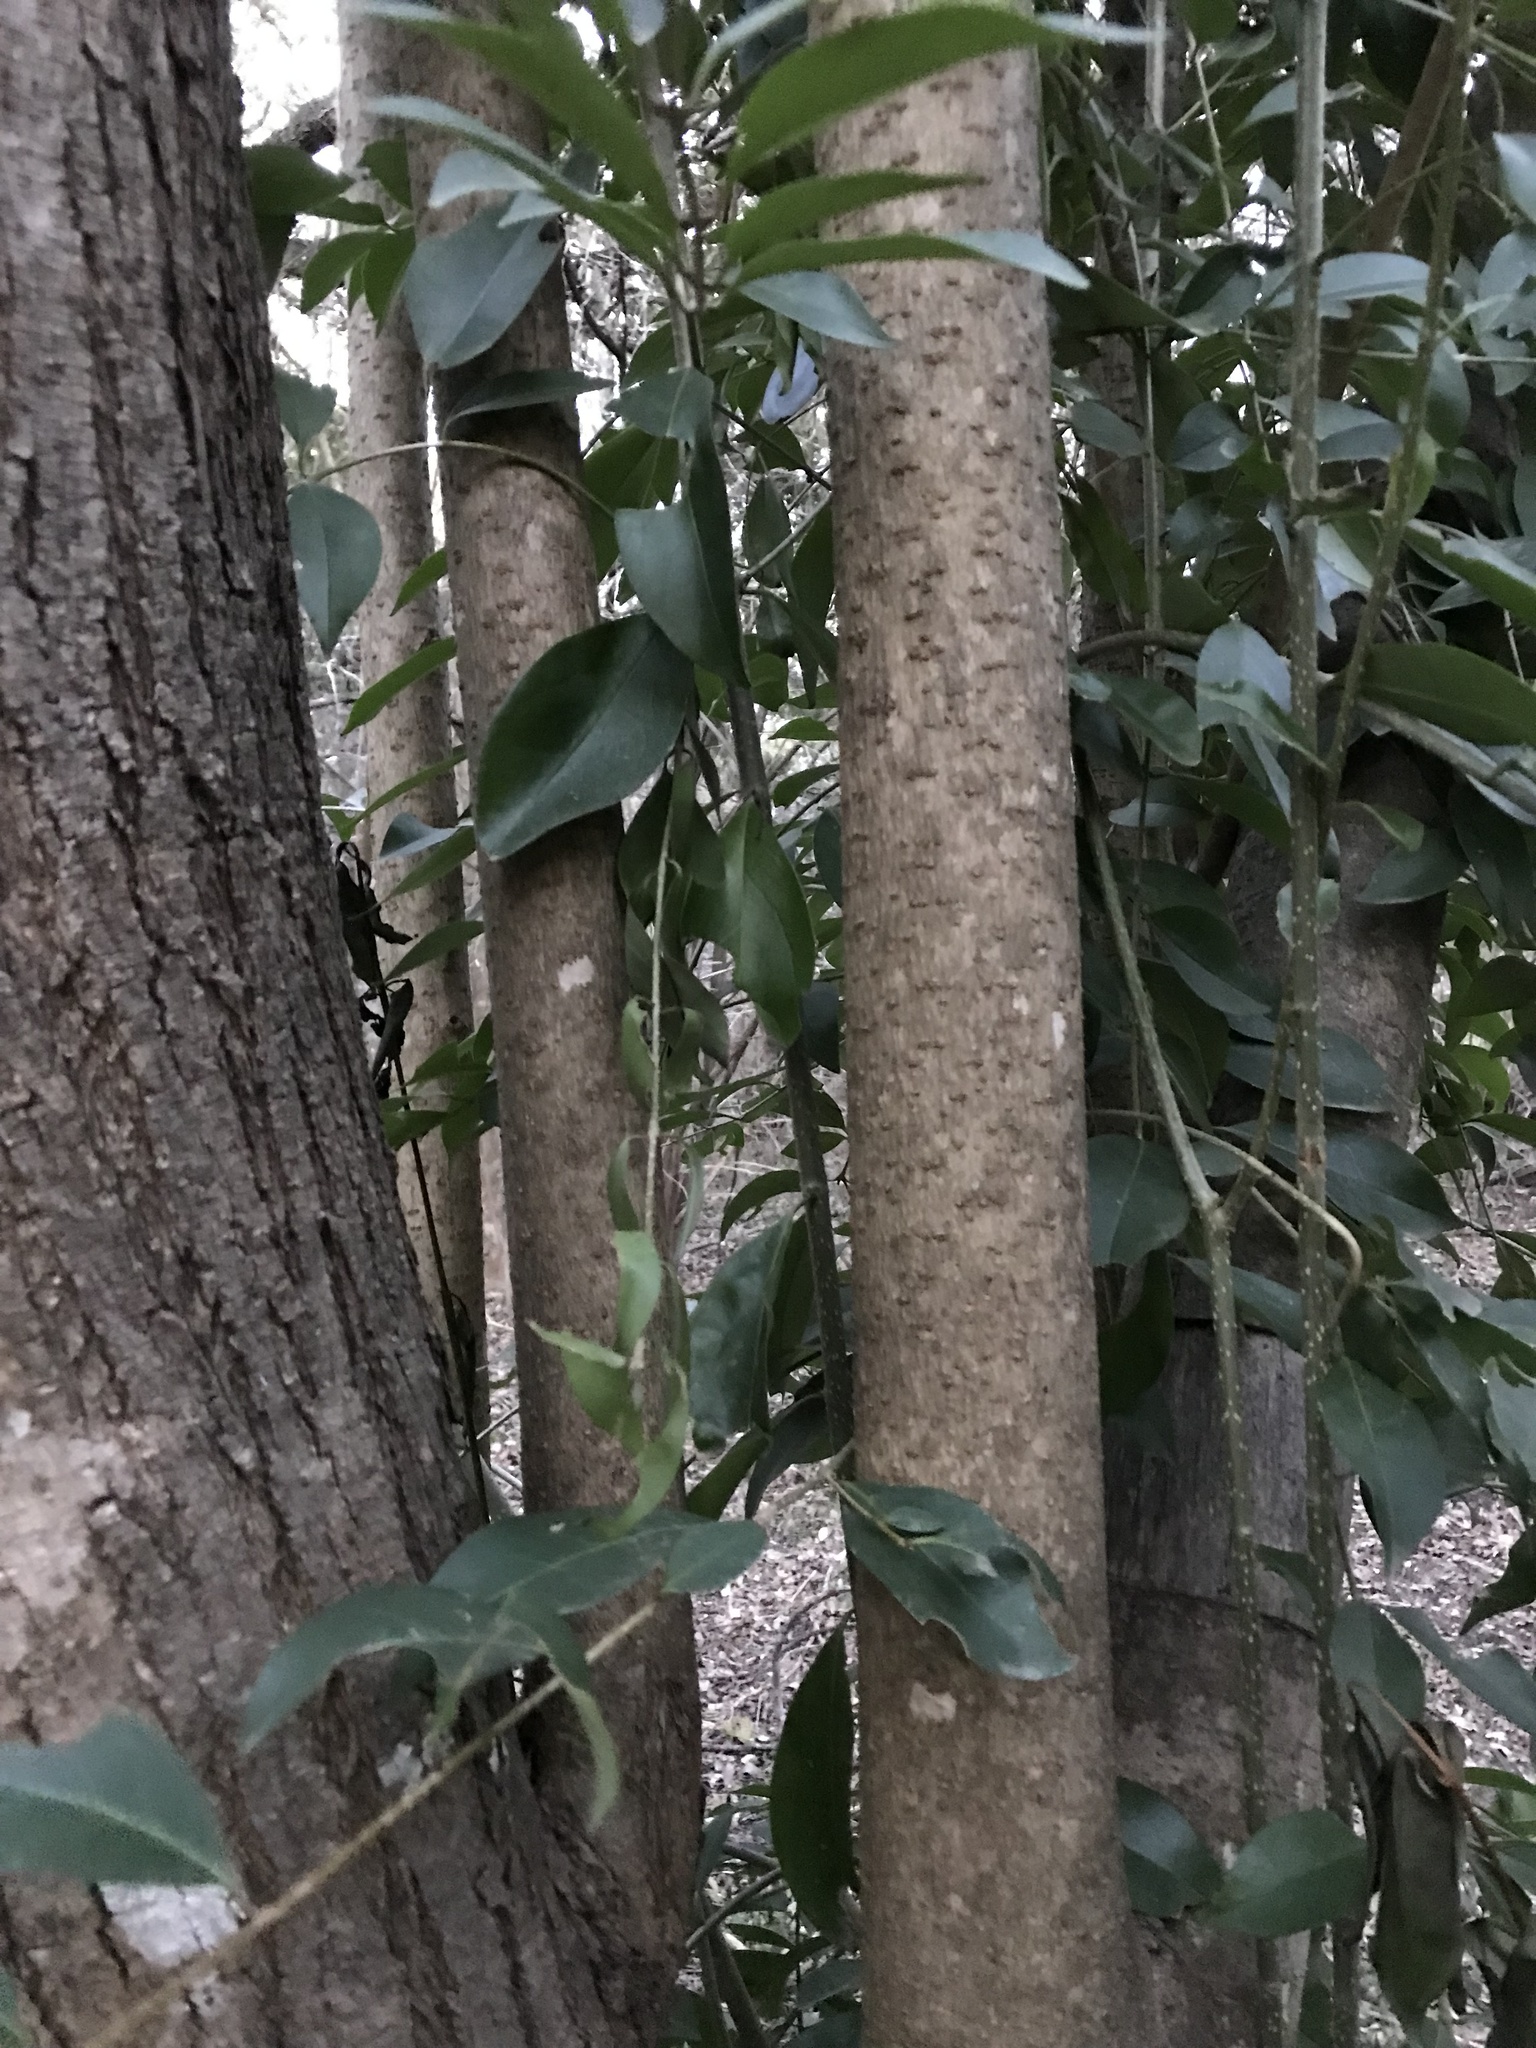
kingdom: Plantae
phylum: Tracheophyta
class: Magnoliopsida
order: Lamiales
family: Oleaceae
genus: Ligustrum
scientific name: Ligustrum lucidum
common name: Glossy privet
